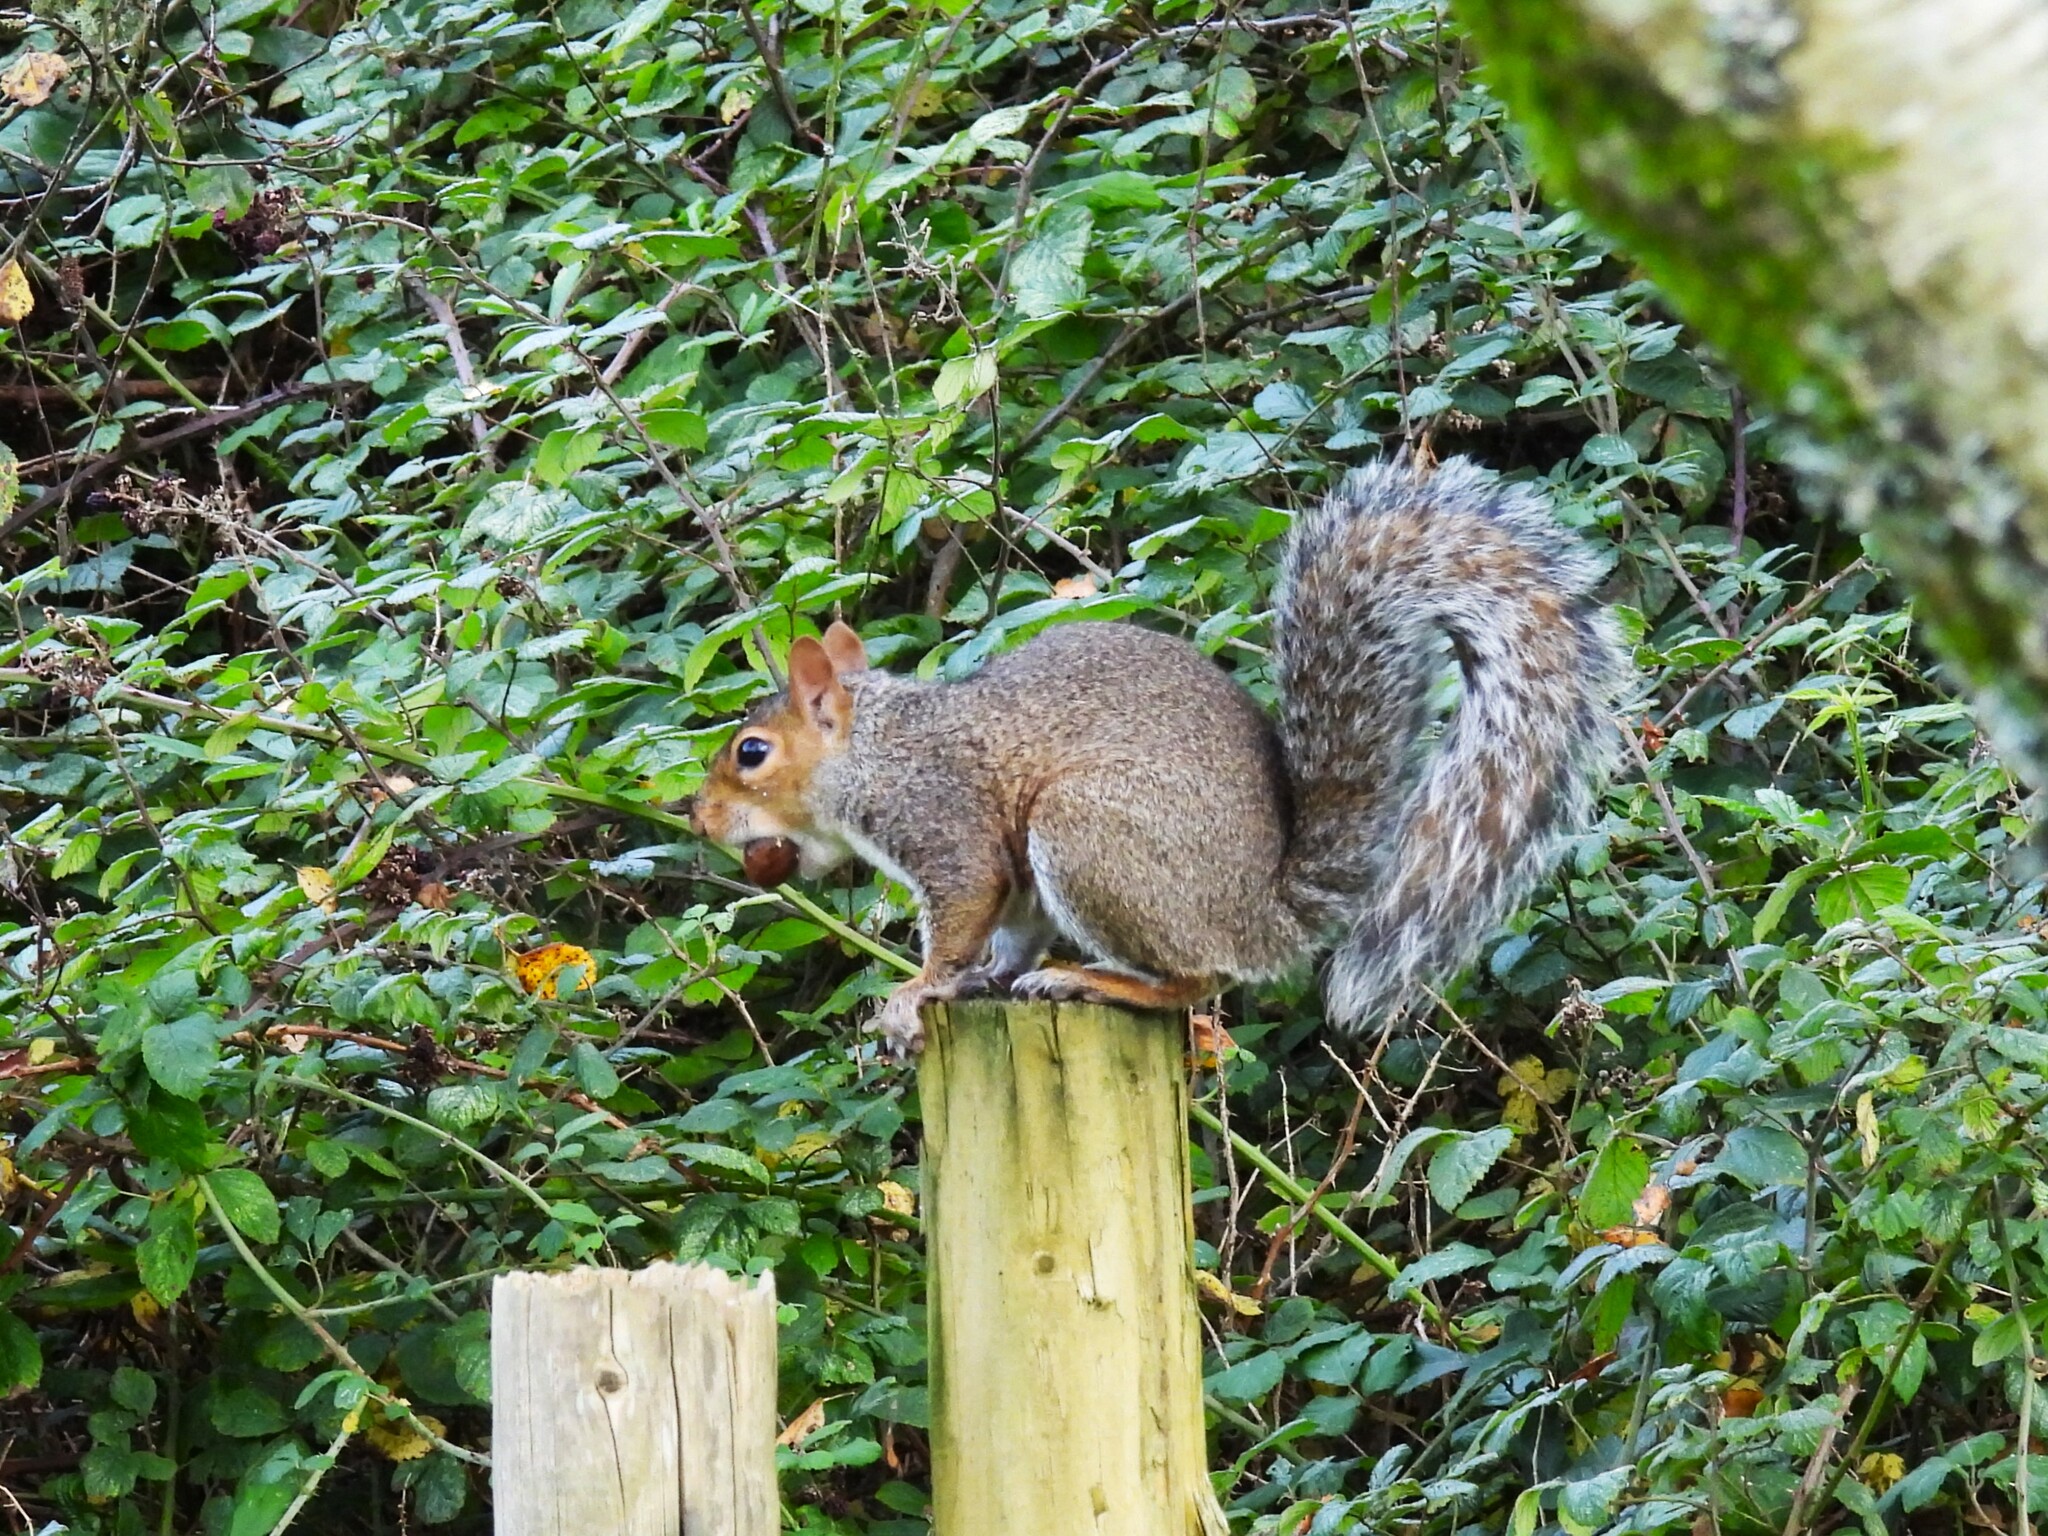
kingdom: Animalia
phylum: Chordata
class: Mammalia
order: Rodentia
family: Sciuridae
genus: Sciurus
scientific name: Sciurus carolinensis
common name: Eastern gray squirrel
